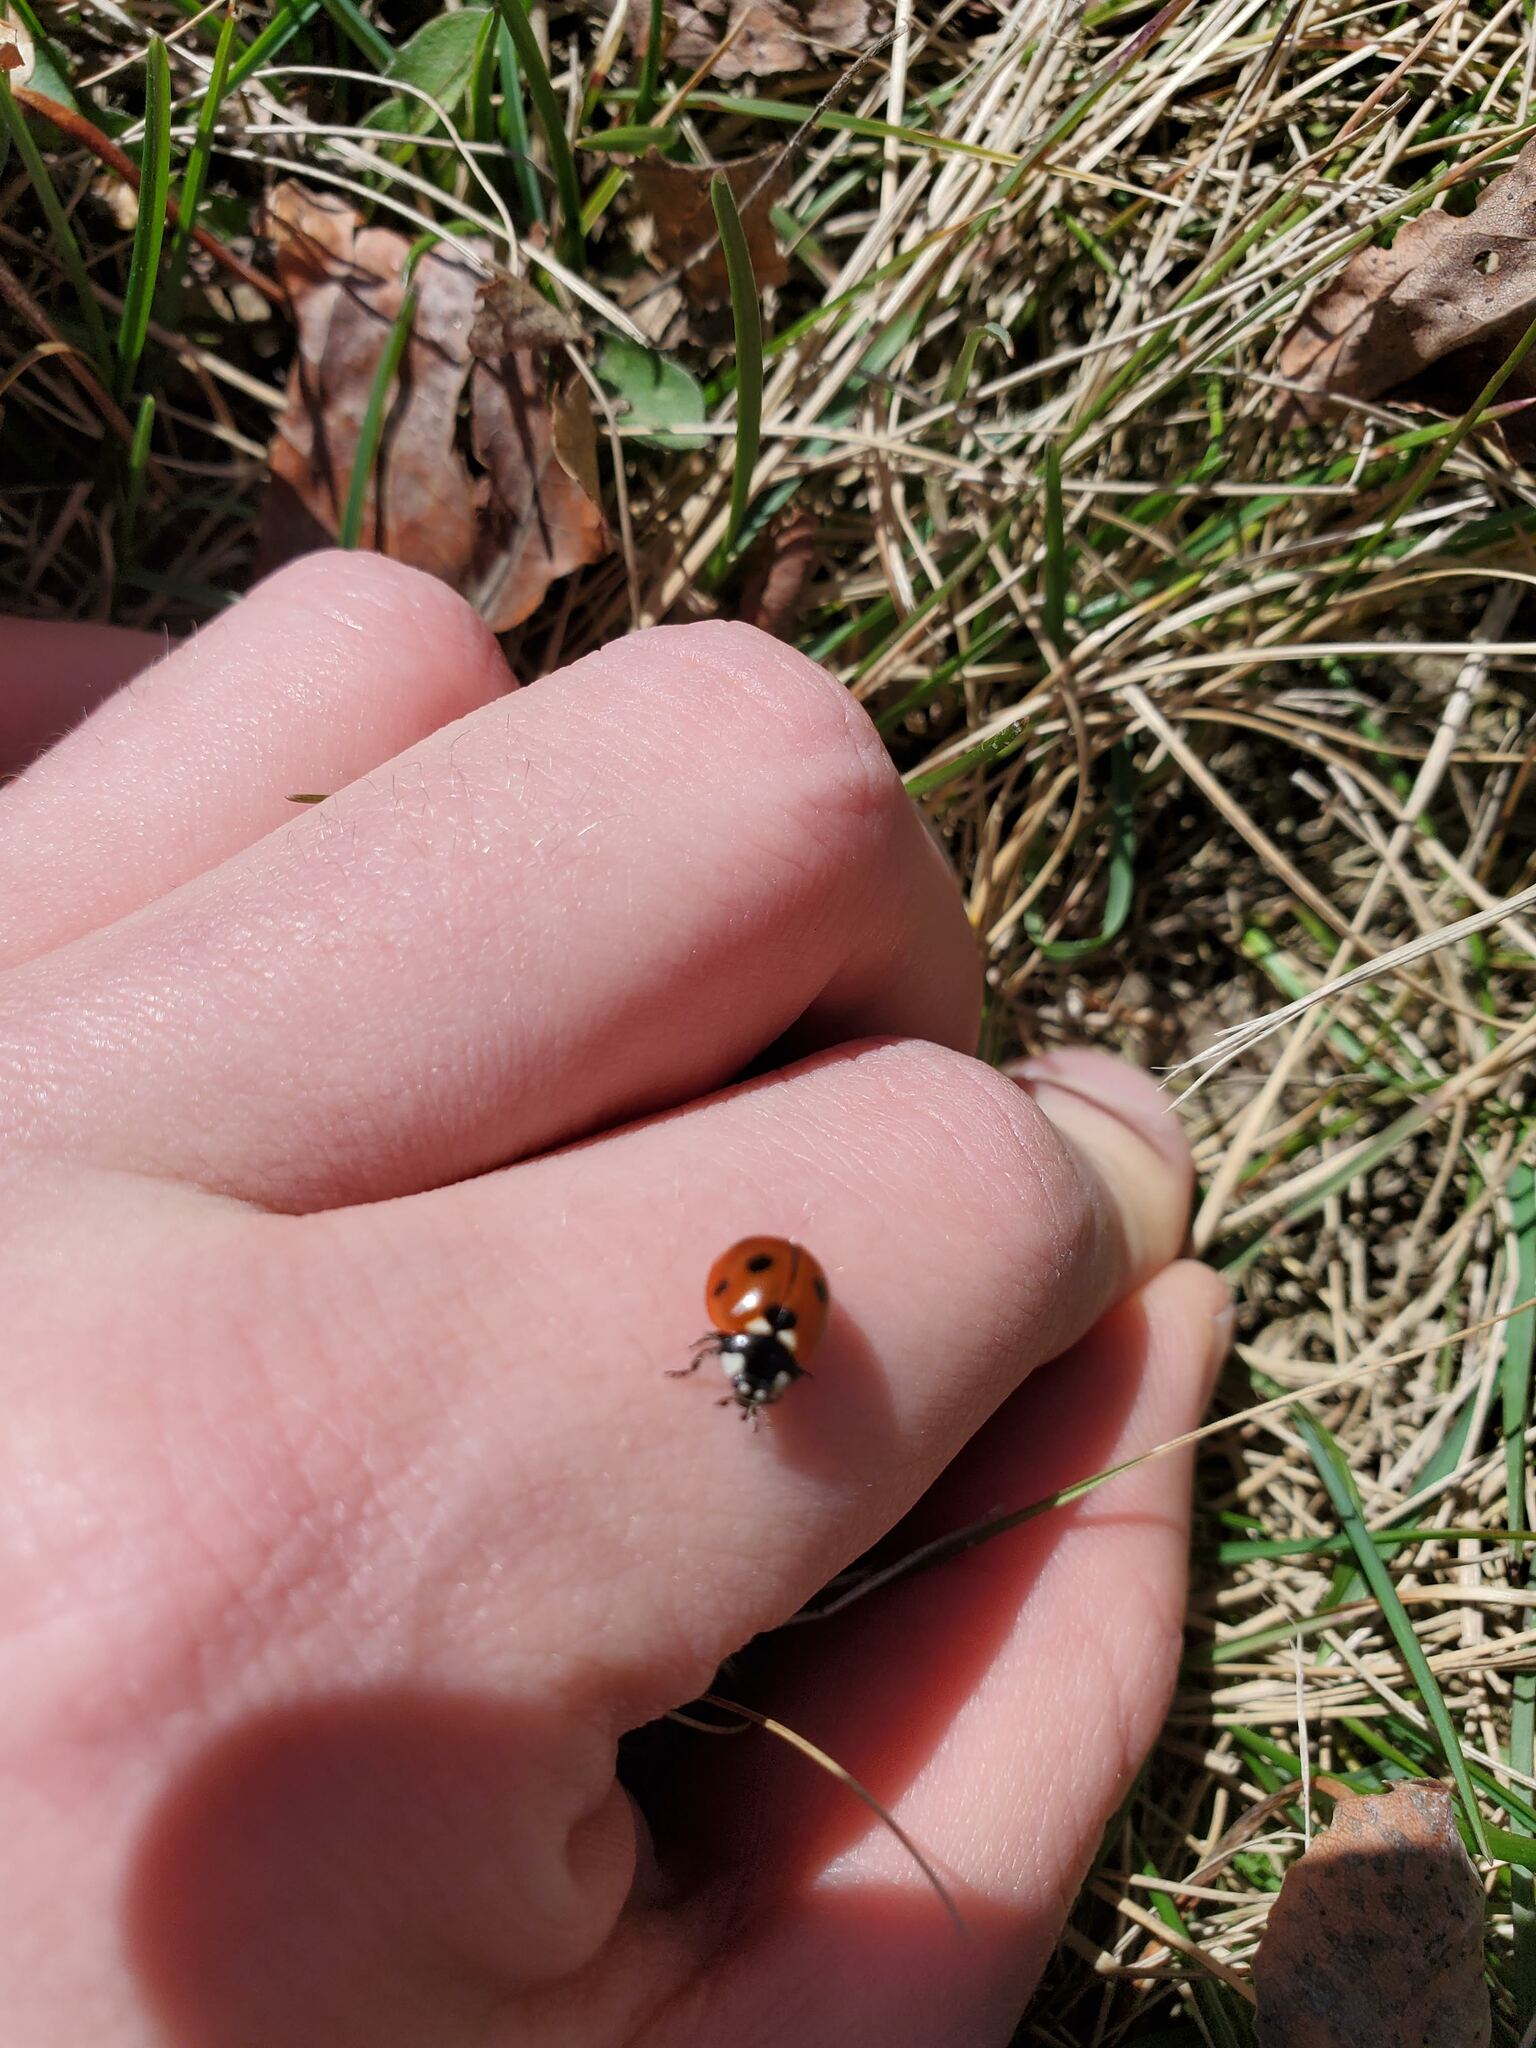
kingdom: Animalia
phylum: Arthropoda
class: Insecta
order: Coleoptera
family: Coccinellidae
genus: Coccinella
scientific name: Coccinella septempunctata
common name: Sevenspotted lady beetle
